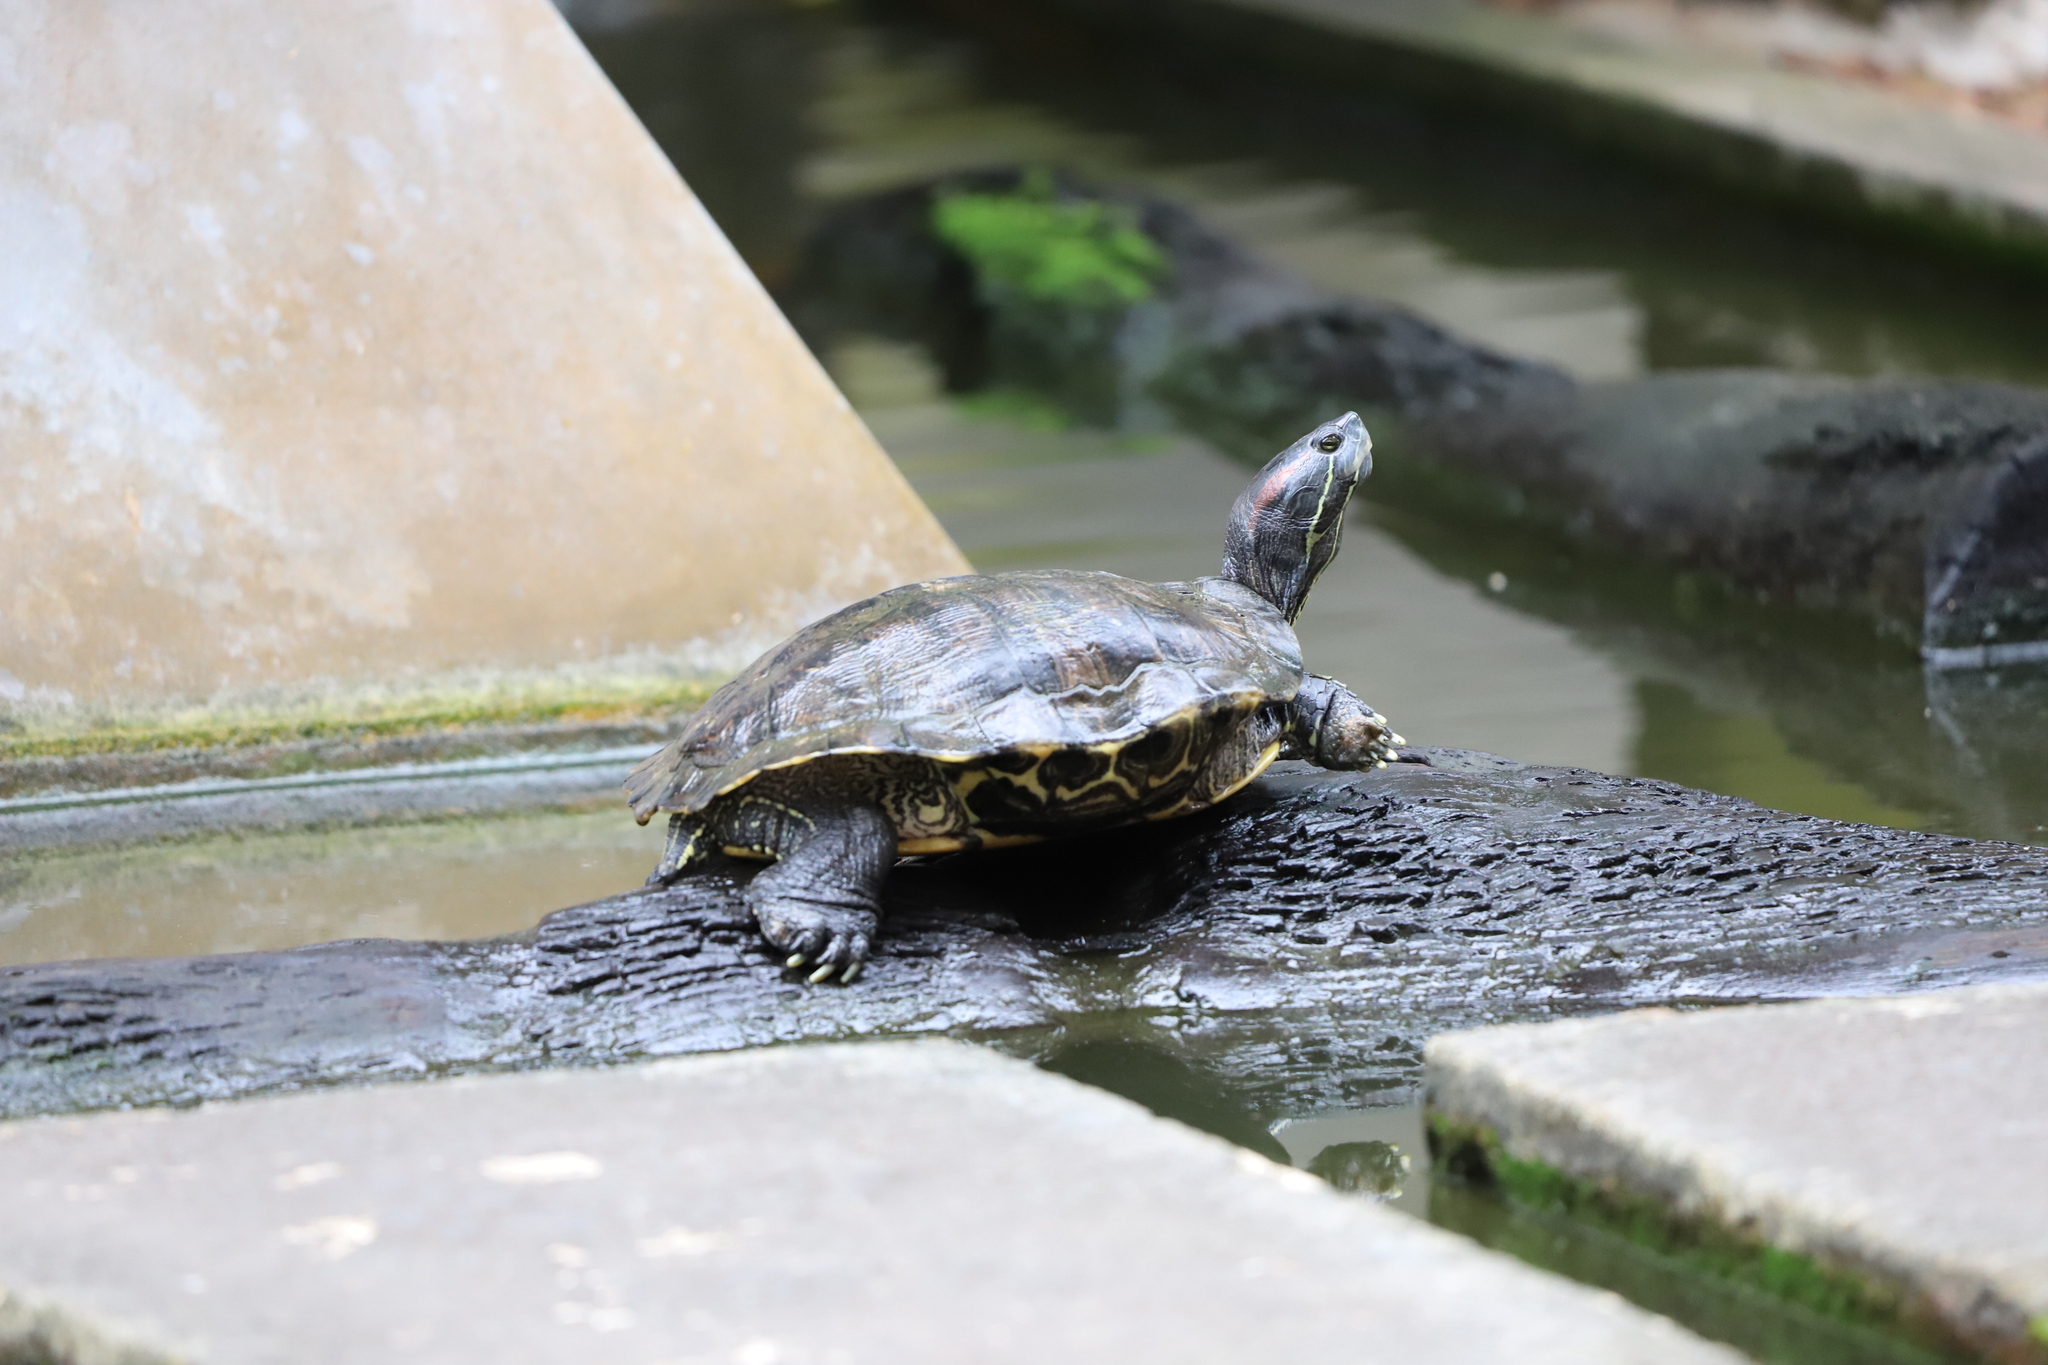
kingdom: Animalia
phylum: Chordata
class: Testudines
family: Emydidae
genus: Trachemys
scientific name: Trachemys scripta
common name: Slider
